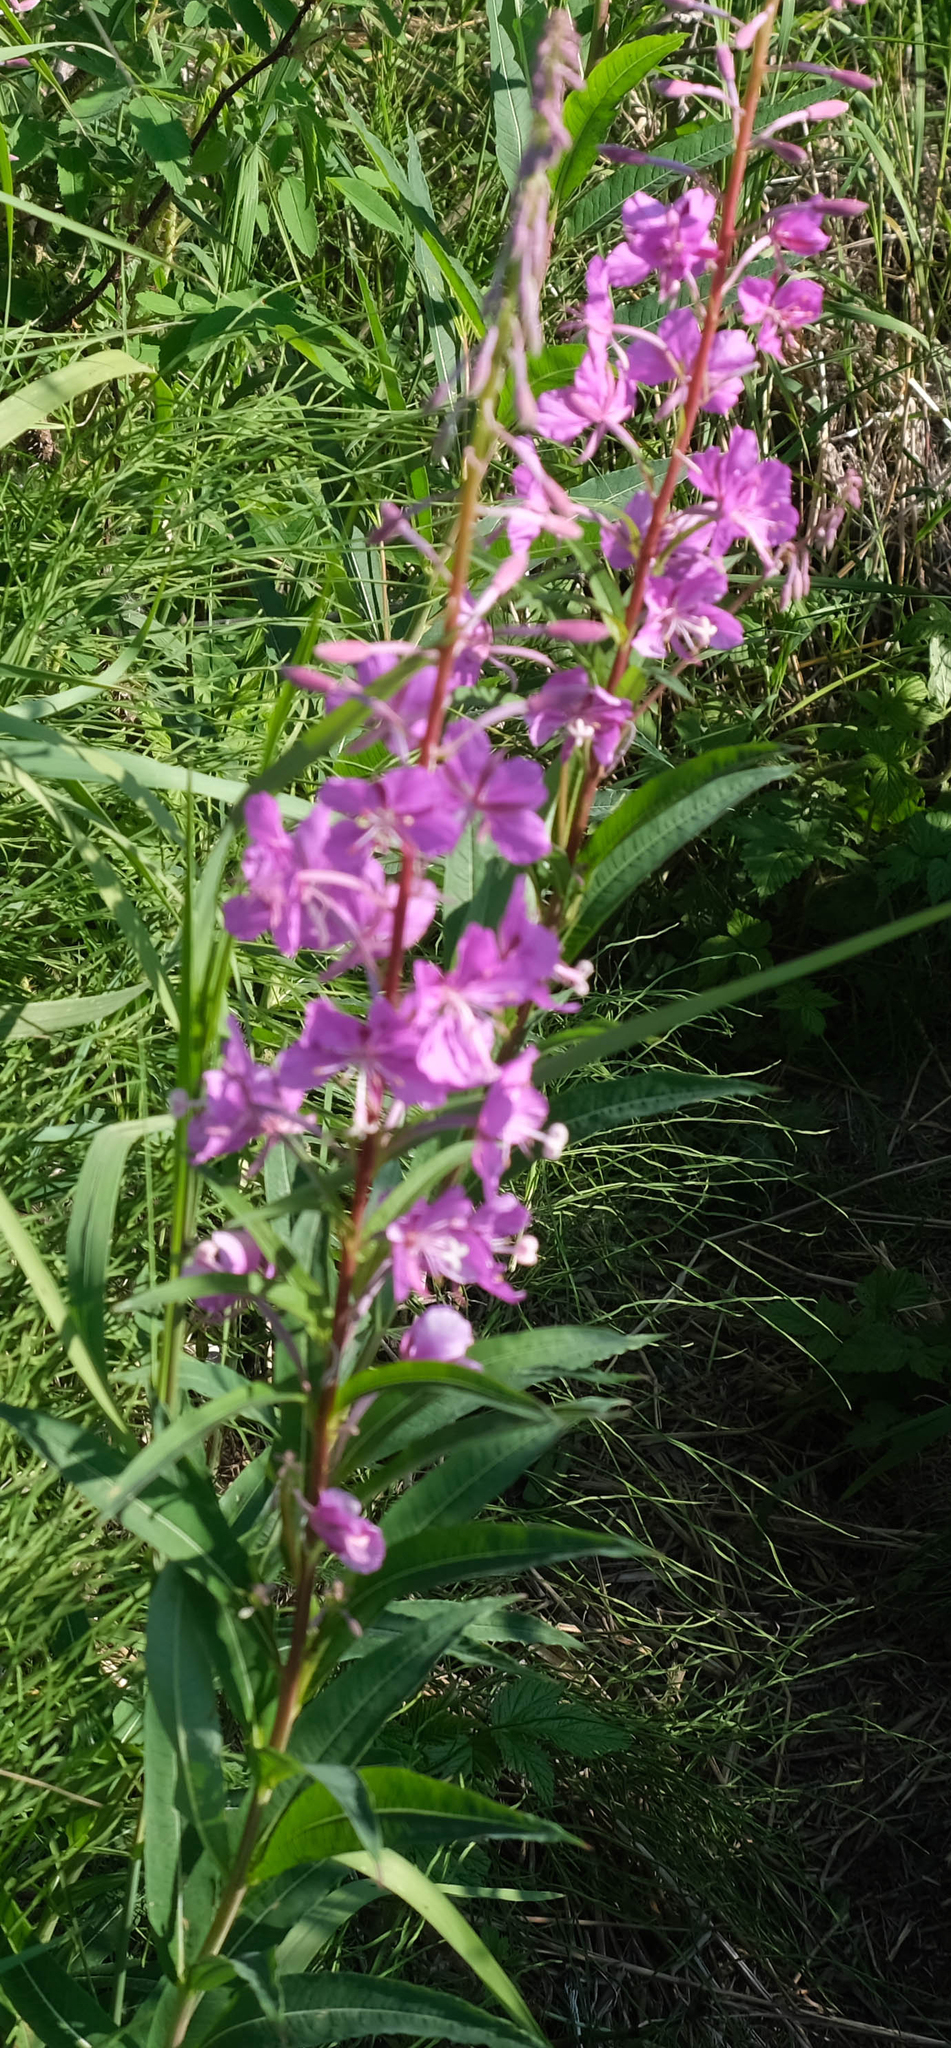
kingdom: Plantae
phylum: Tracheophyta
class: Magnoliopsida
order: Myrtales
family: Onagraceae
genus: Chamaenerion
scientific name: Chamaenerion angustifolium
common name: Fireweed
